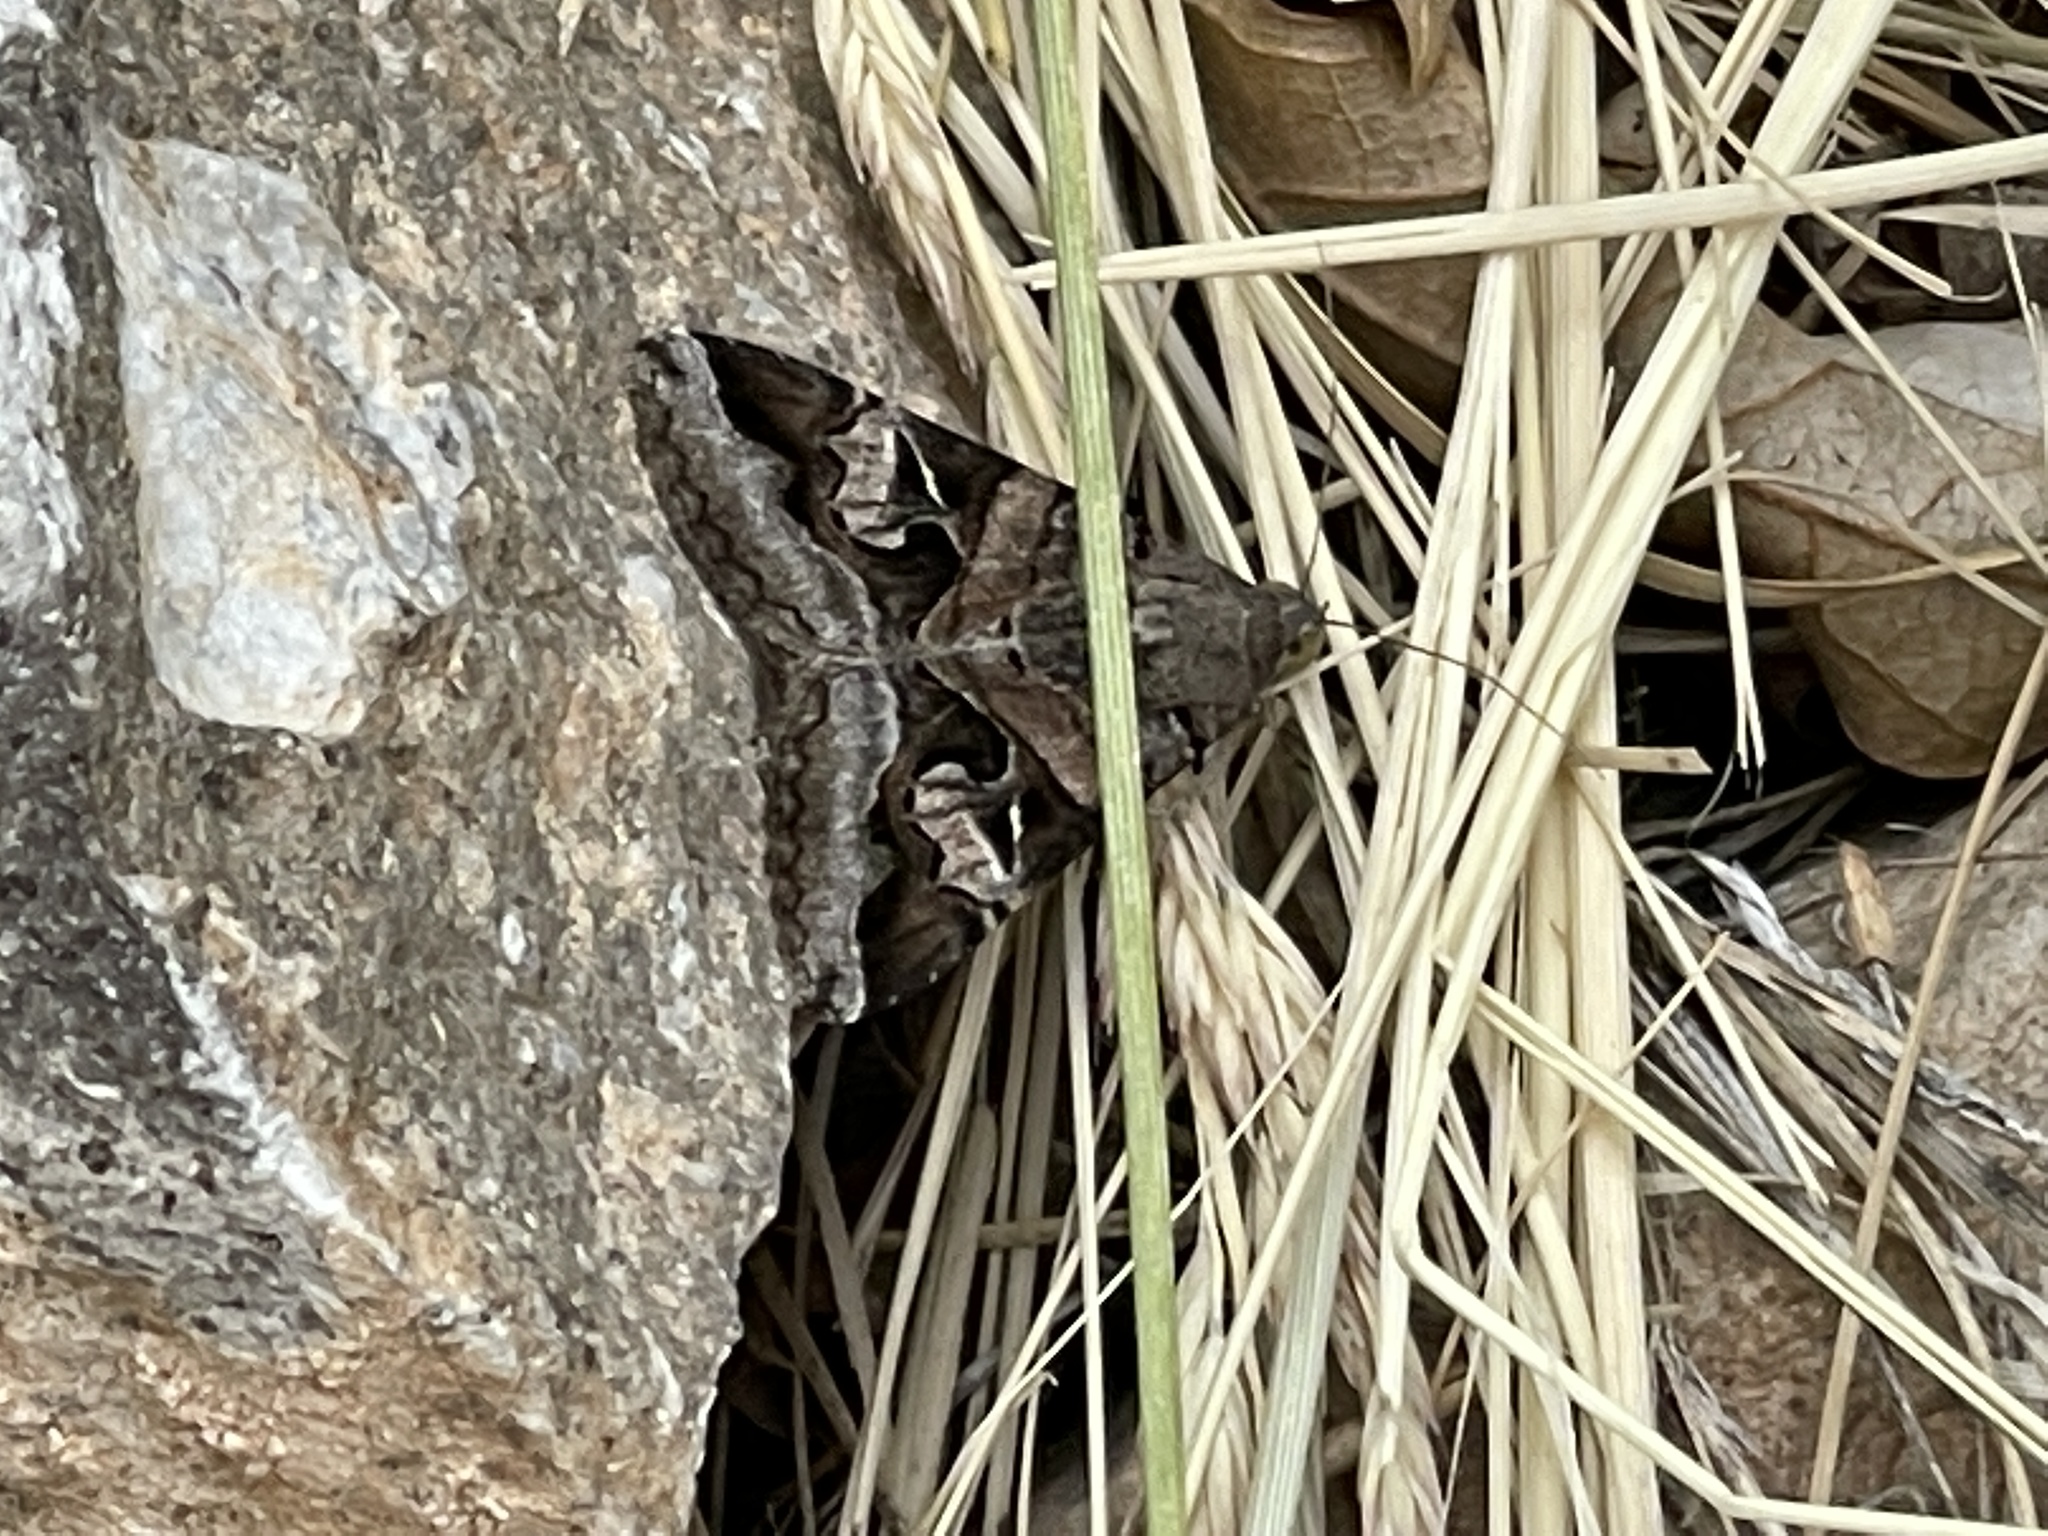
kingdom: Animalia
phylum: Arthropoda
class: Insecta
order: Lepidoptera
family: Erebidae
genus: Melipotis
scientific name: Melipotis indomita
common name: Moth
